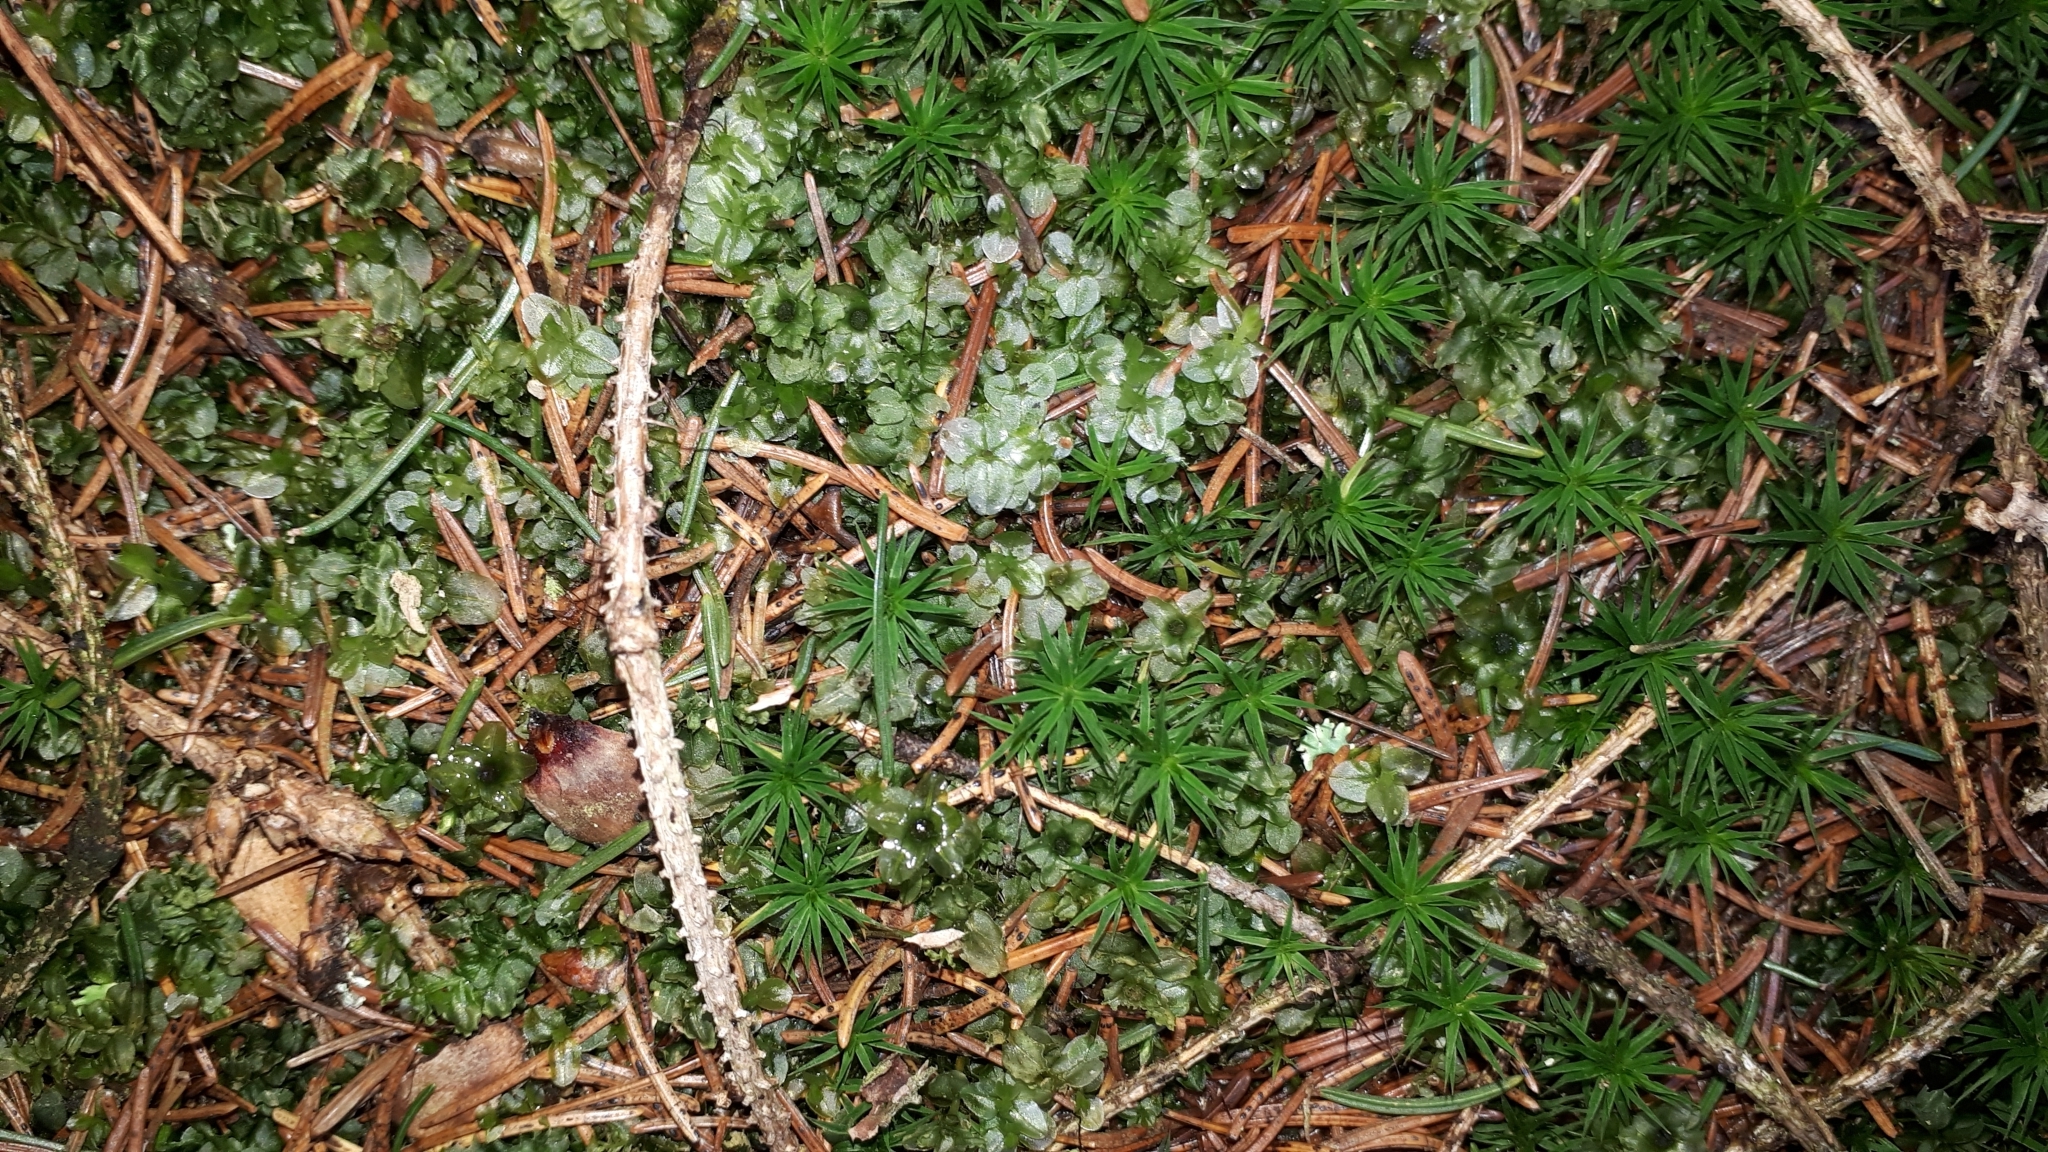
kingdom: Plantae
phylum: Bryophyta
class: Bryopsida
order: Bryales
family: Mniaceae
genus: Rhizomnium
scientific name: Rhizomnium punctatum
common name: Dotted leafy moss
